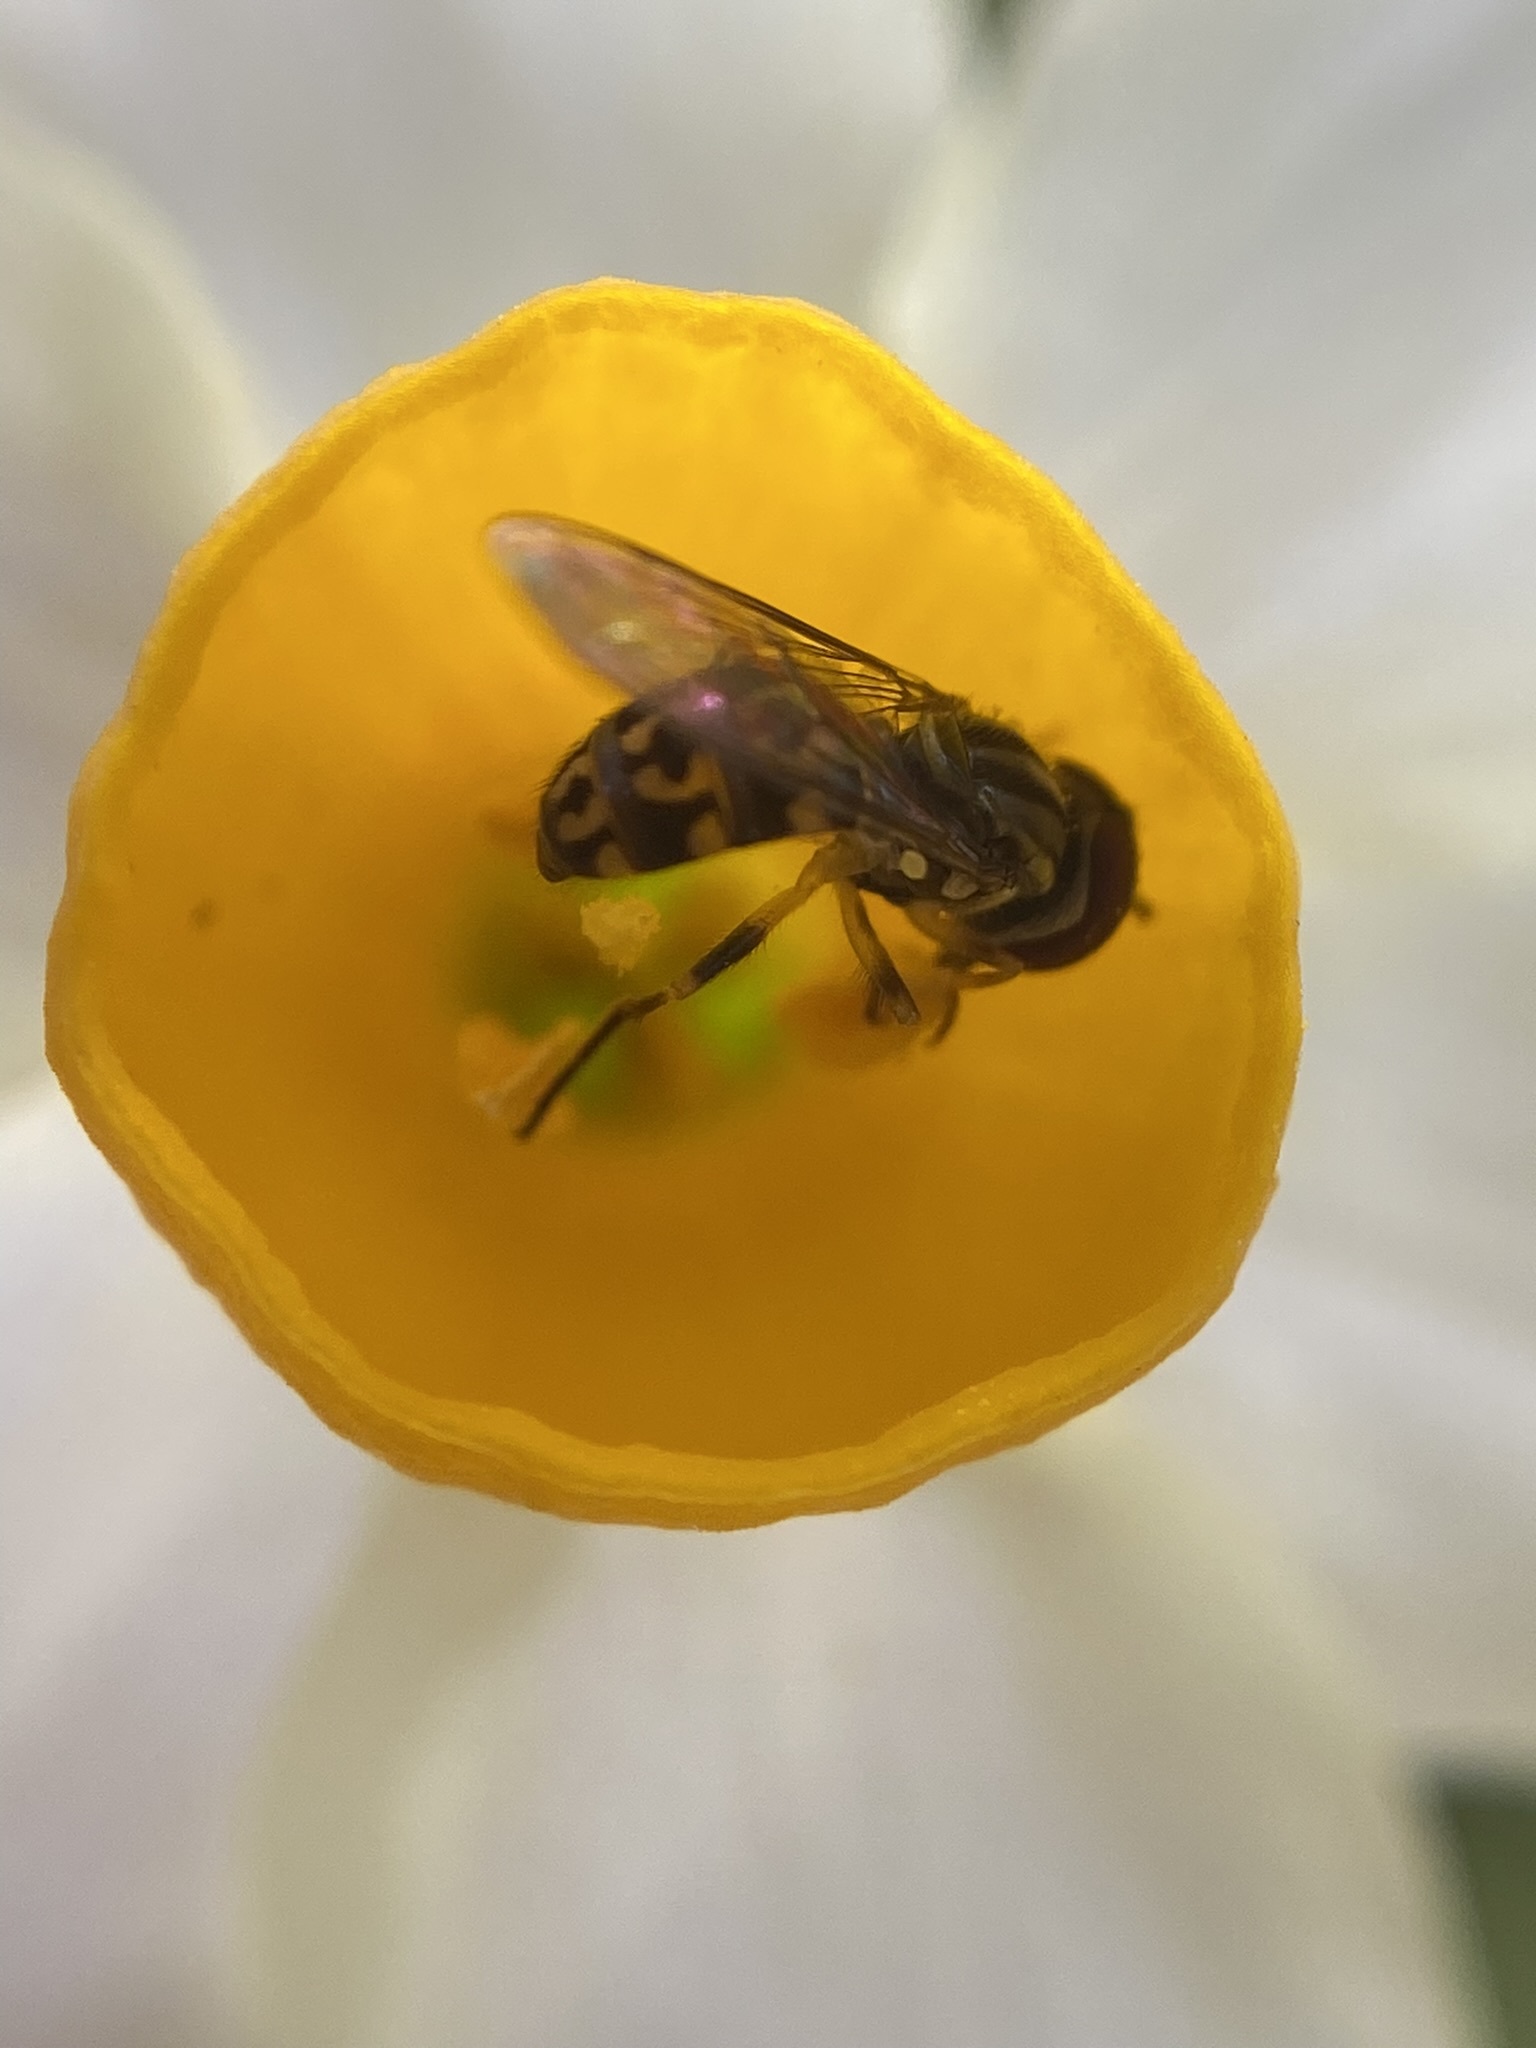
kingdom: Animalia
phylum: Arthropoda
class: Insecta
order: Diptera
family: Syrphidae
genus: Toxomerus
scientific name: Toxomerus virgulatus
